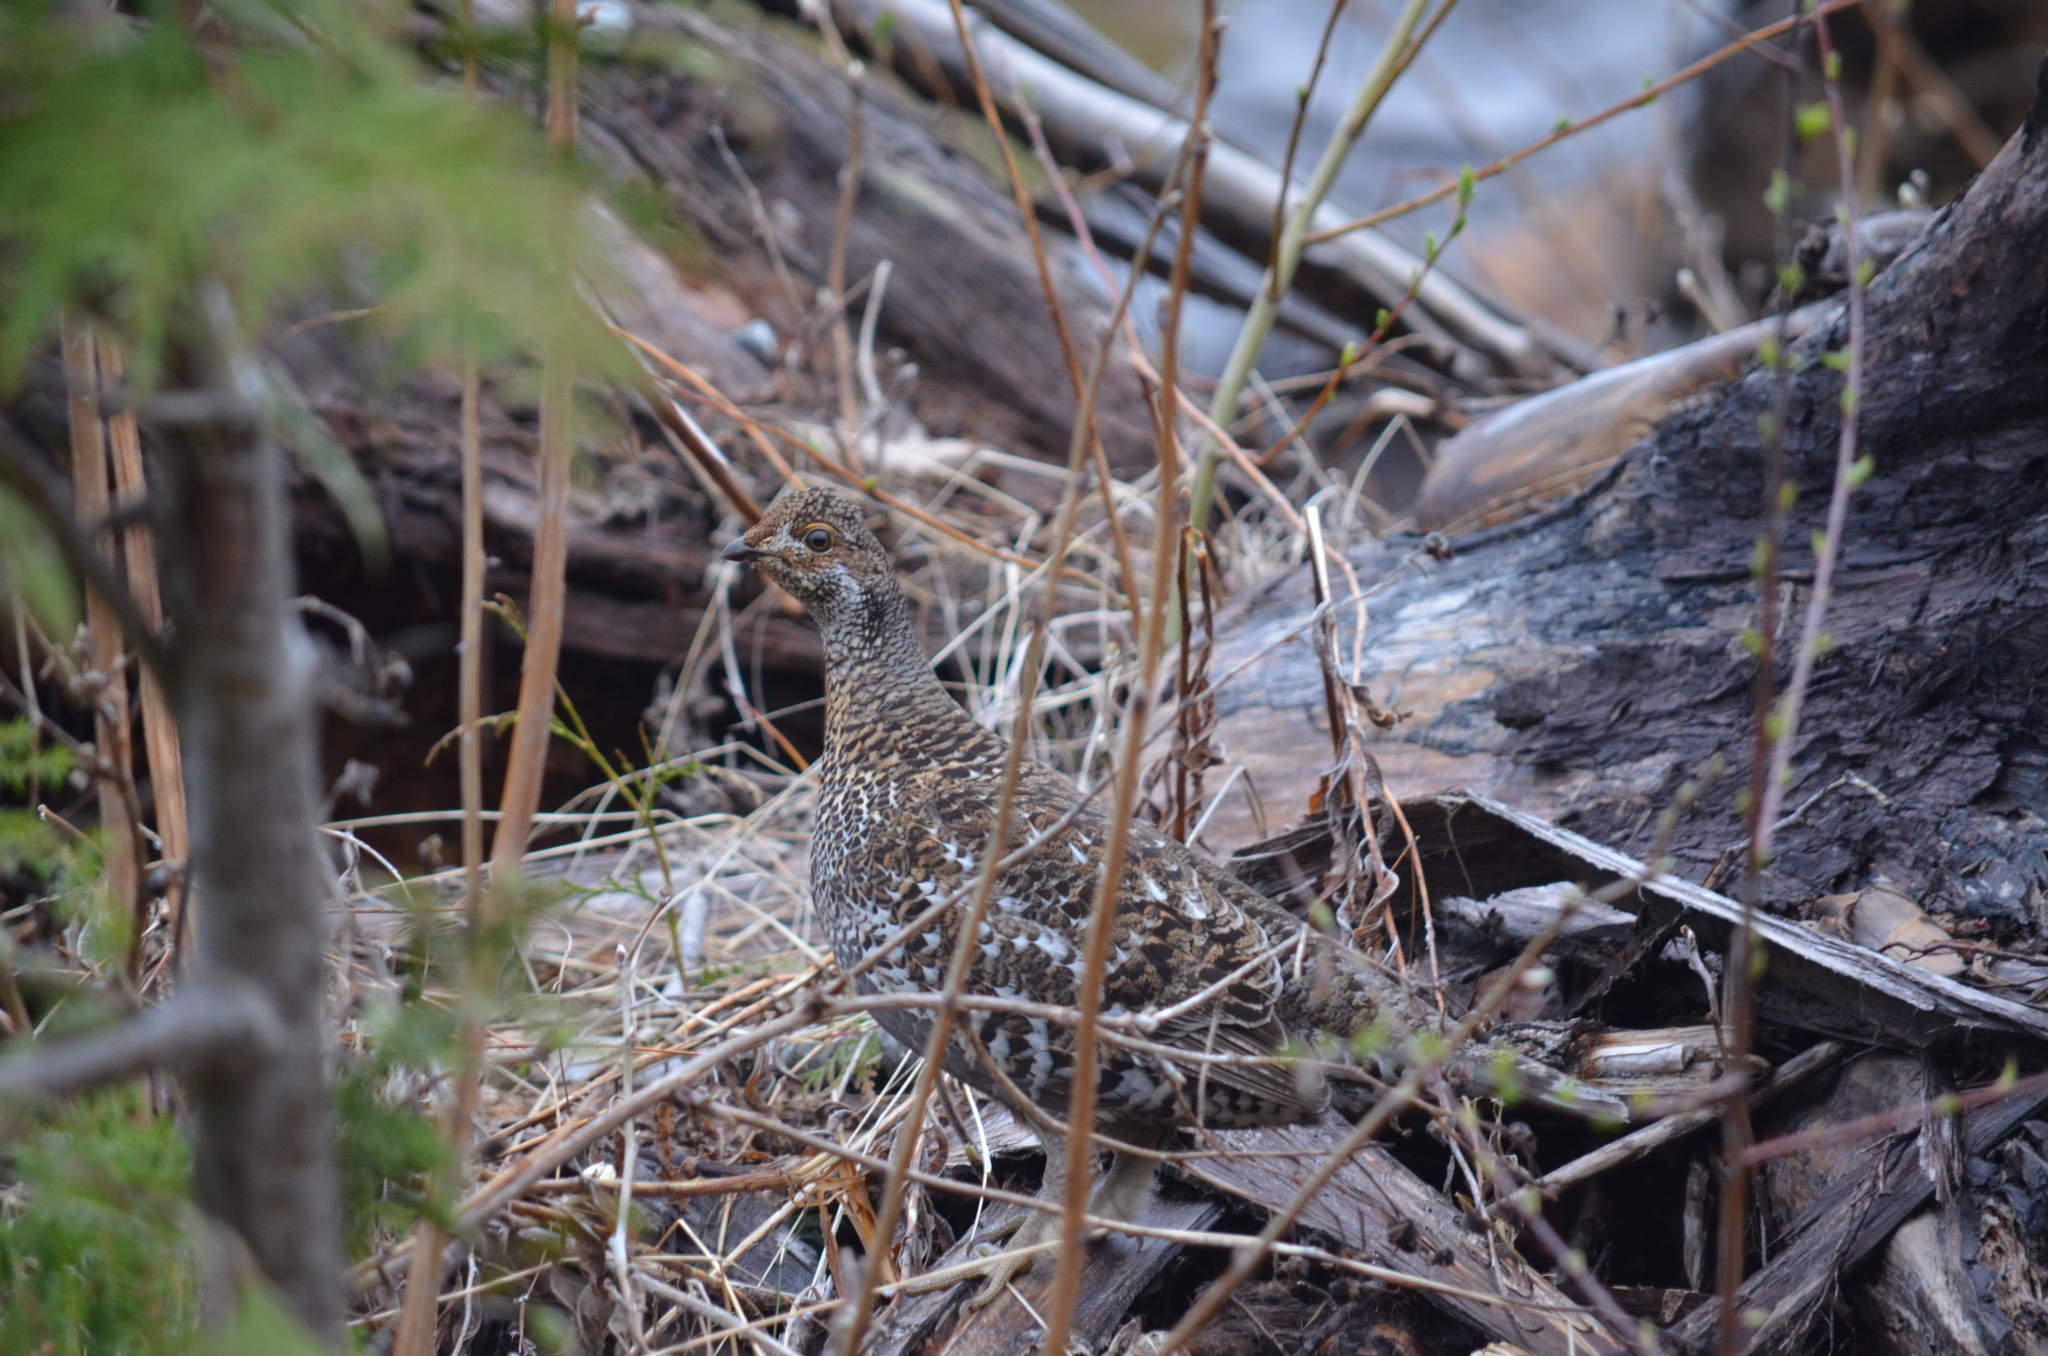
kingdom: Animalia
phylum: Chordata
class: Aves
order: Galliformes
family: Phasianidae
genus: Dendragapus
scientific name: Dendragapus fuliginosus
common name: Sooty grouse
